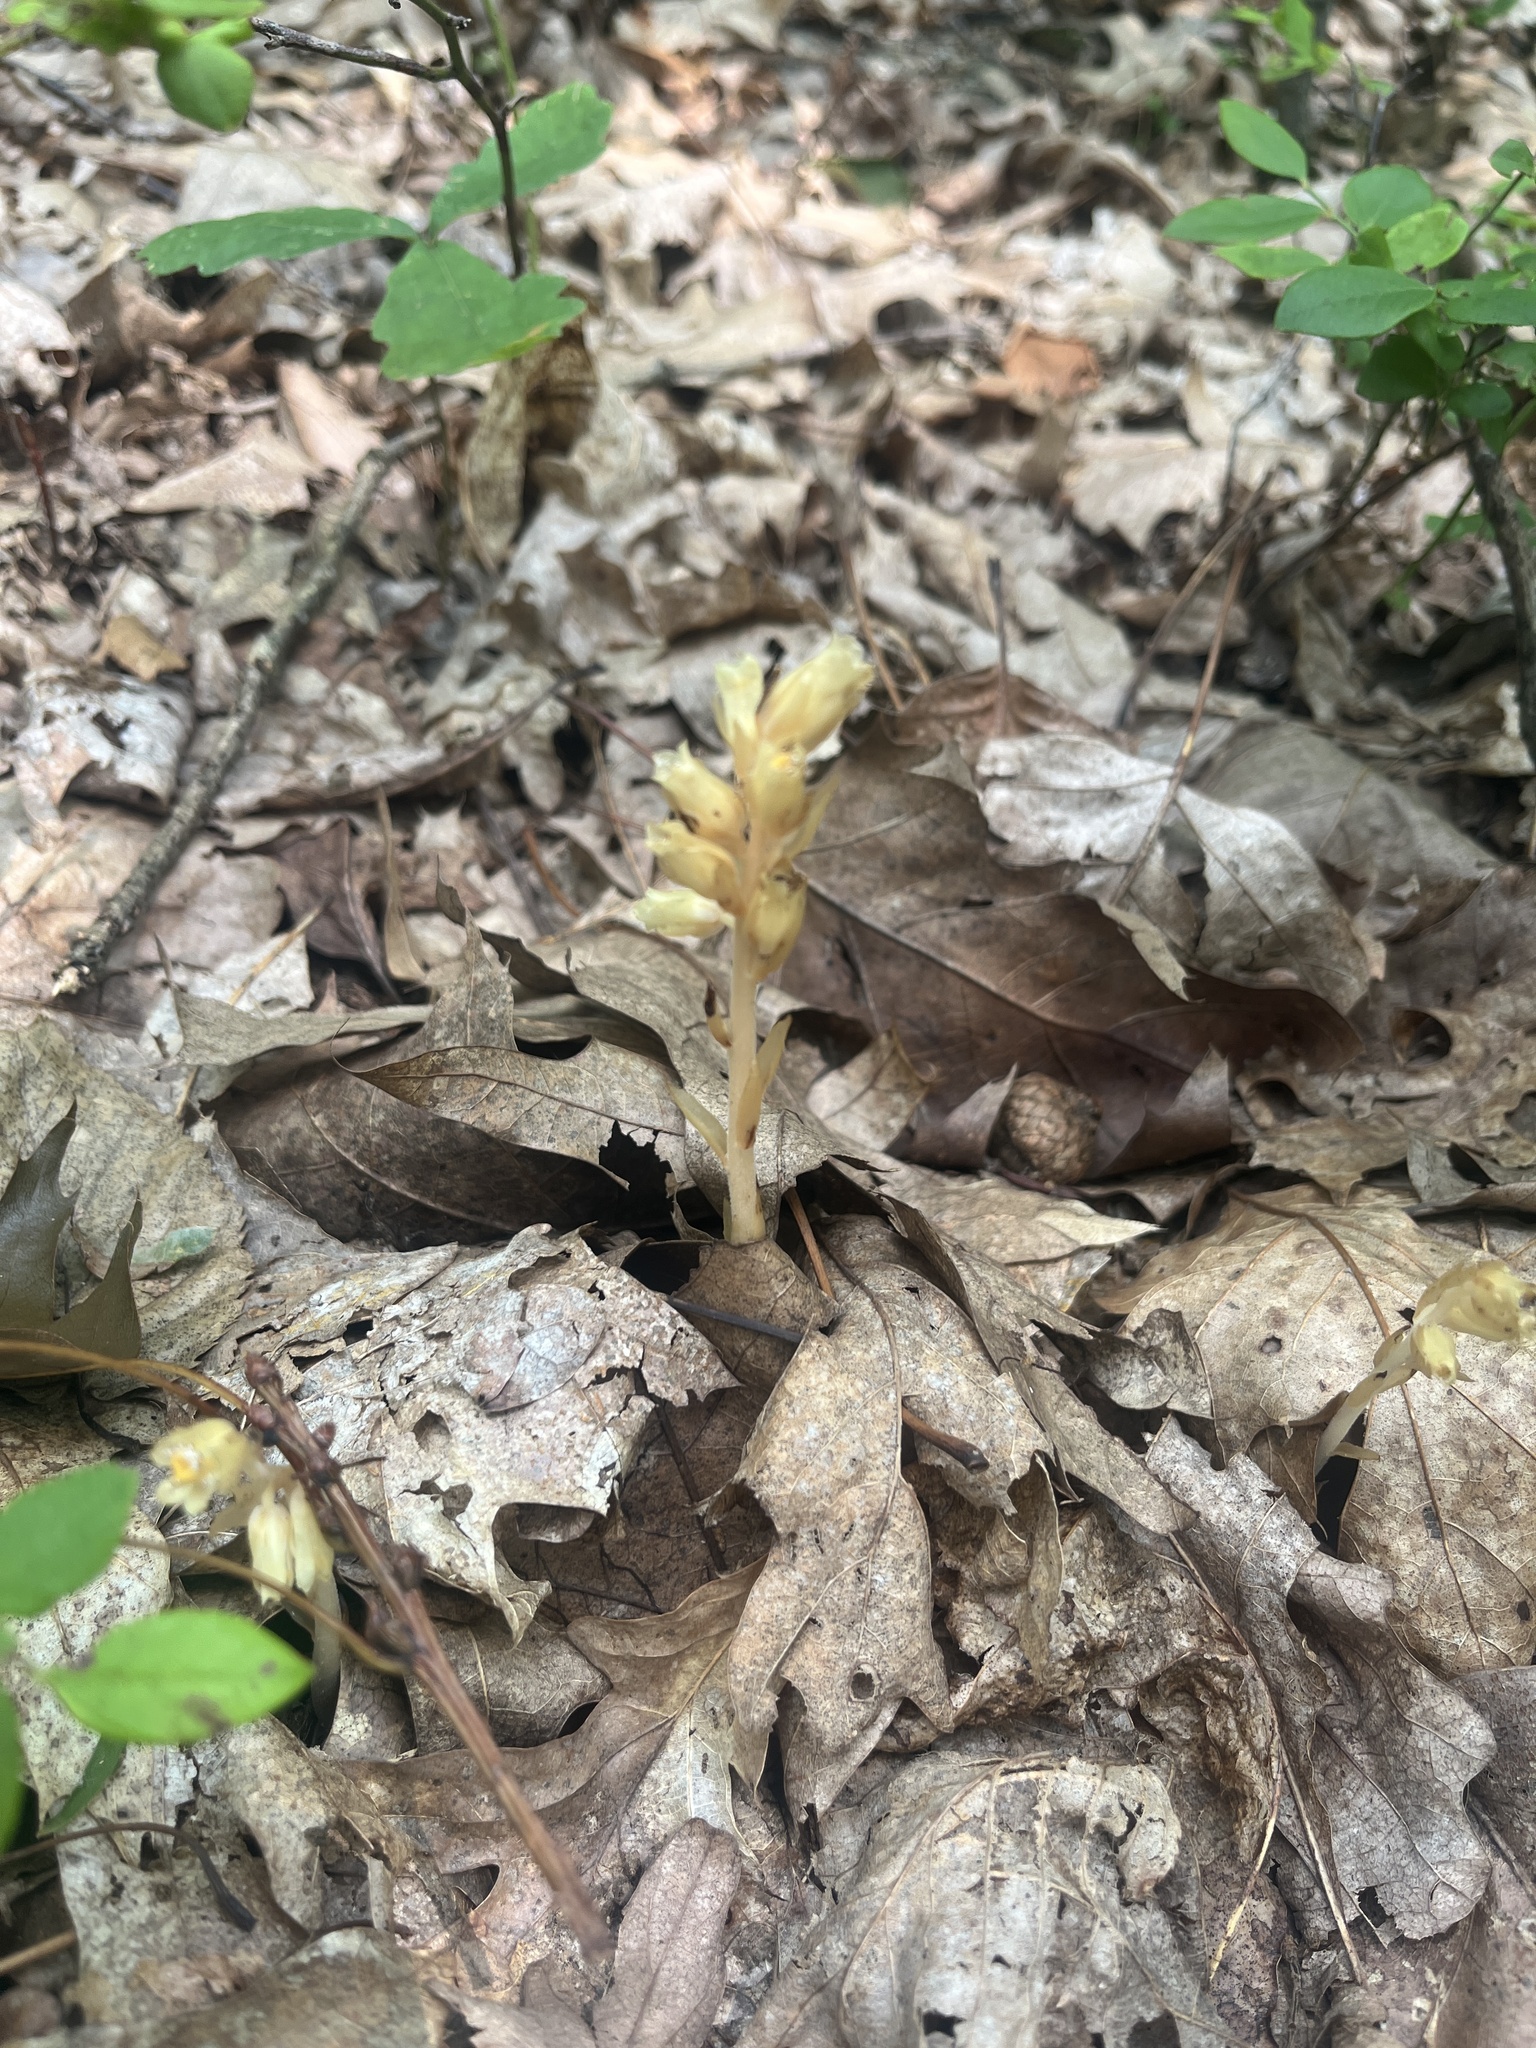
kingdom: Plantae
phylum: Tracheophyta
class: Magnoliopsida
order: Ericales
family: Ericaceae
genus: Hypopitys
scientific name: Hypopitys monotropa
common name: Yellow bird's-nest
